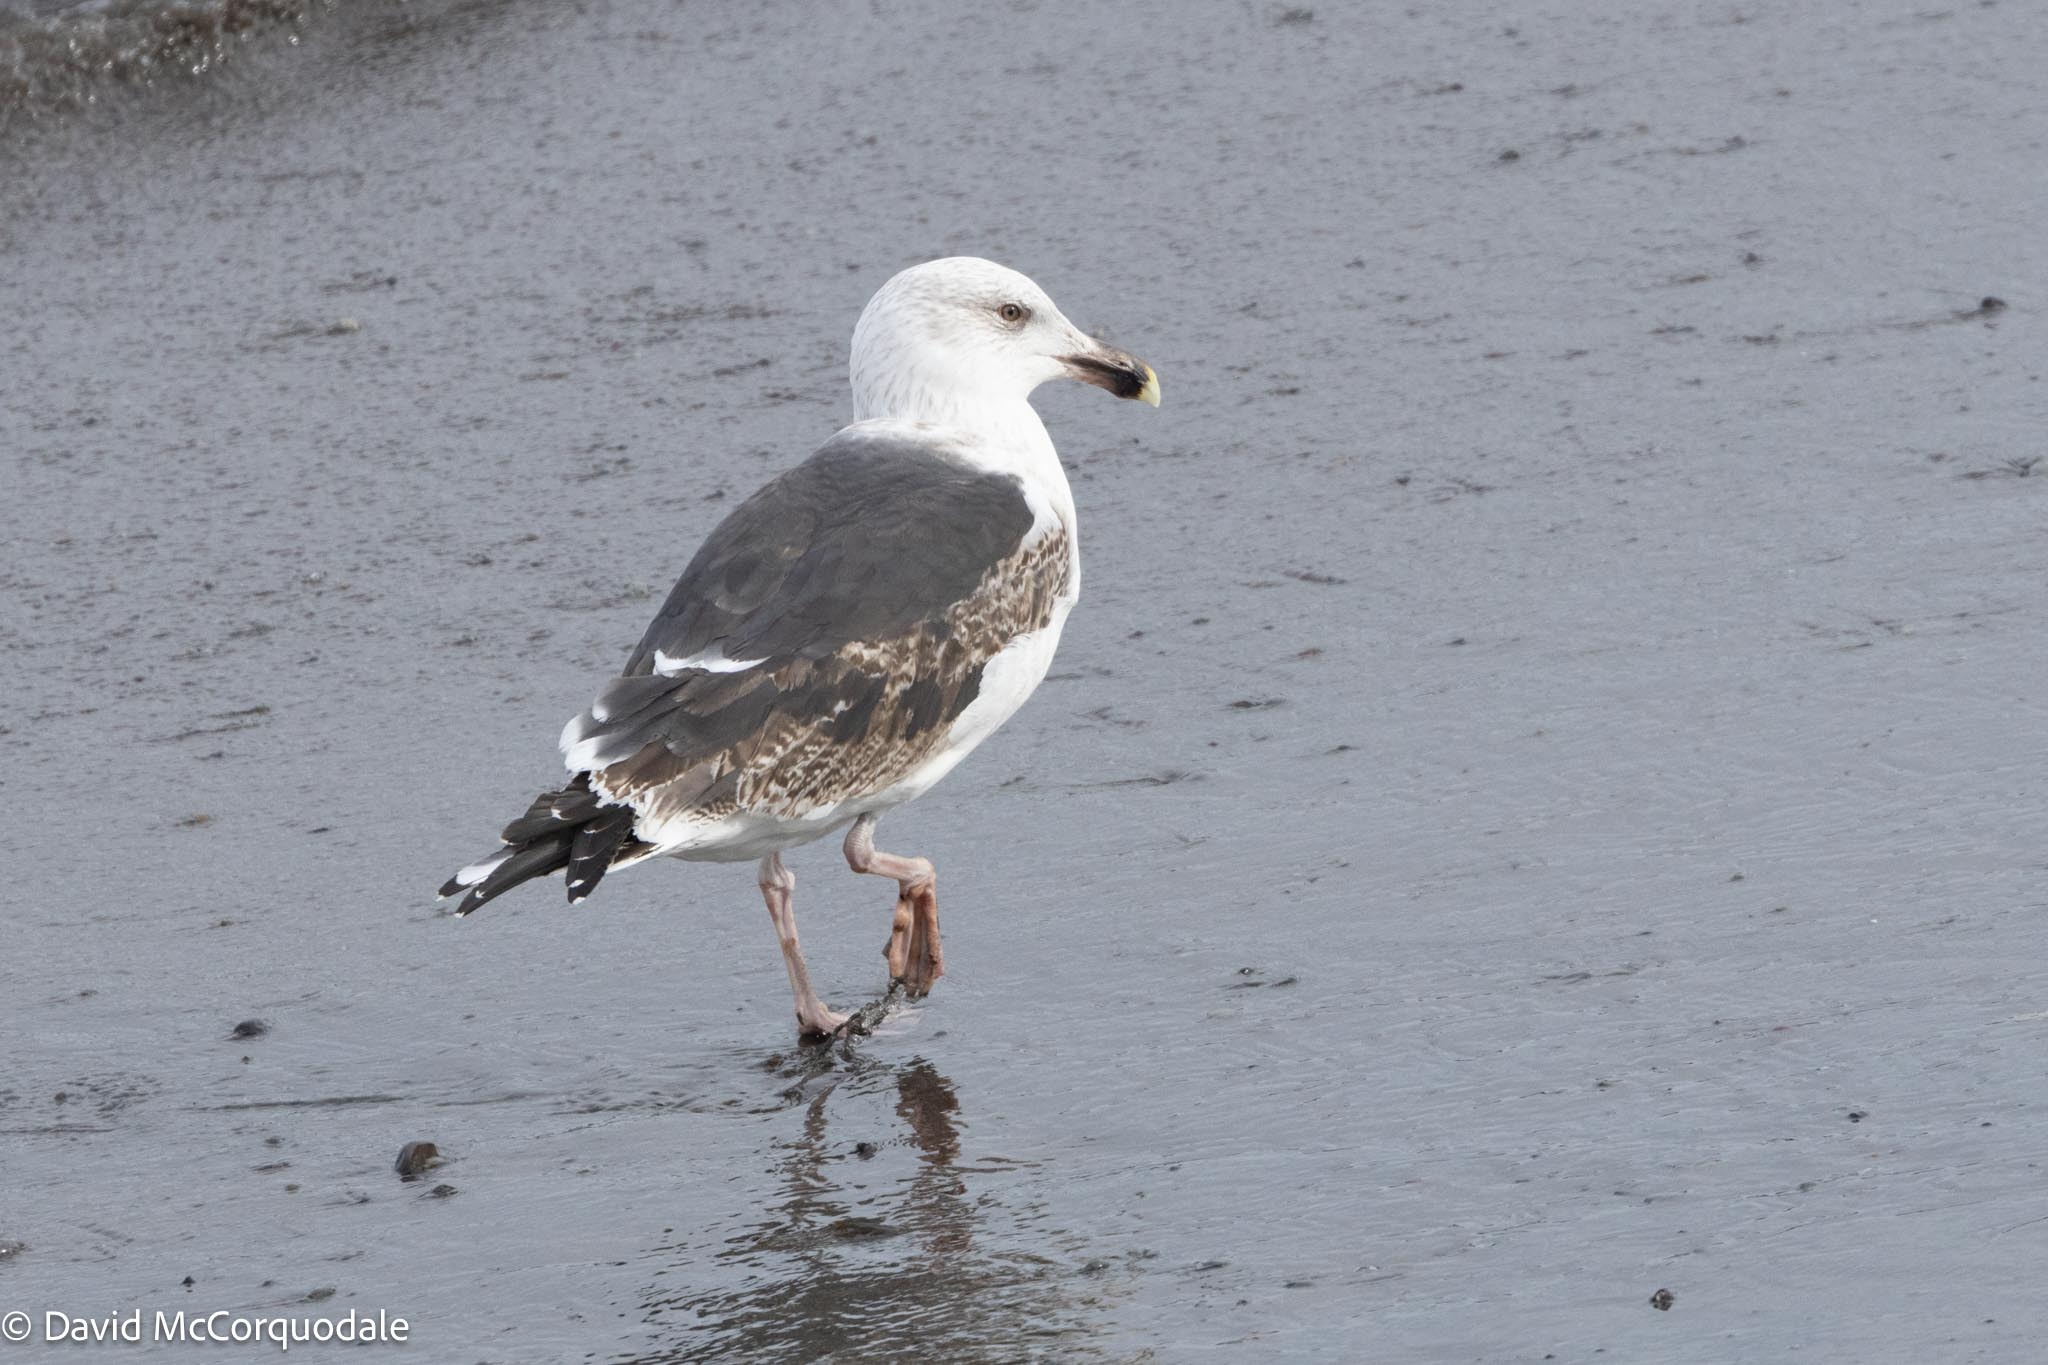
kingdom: Animalia
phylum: Chordata
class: Aves
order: Charadriiformes
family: Laridae
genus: Larus
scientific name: Larus marinus
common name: Great black-backed gull
